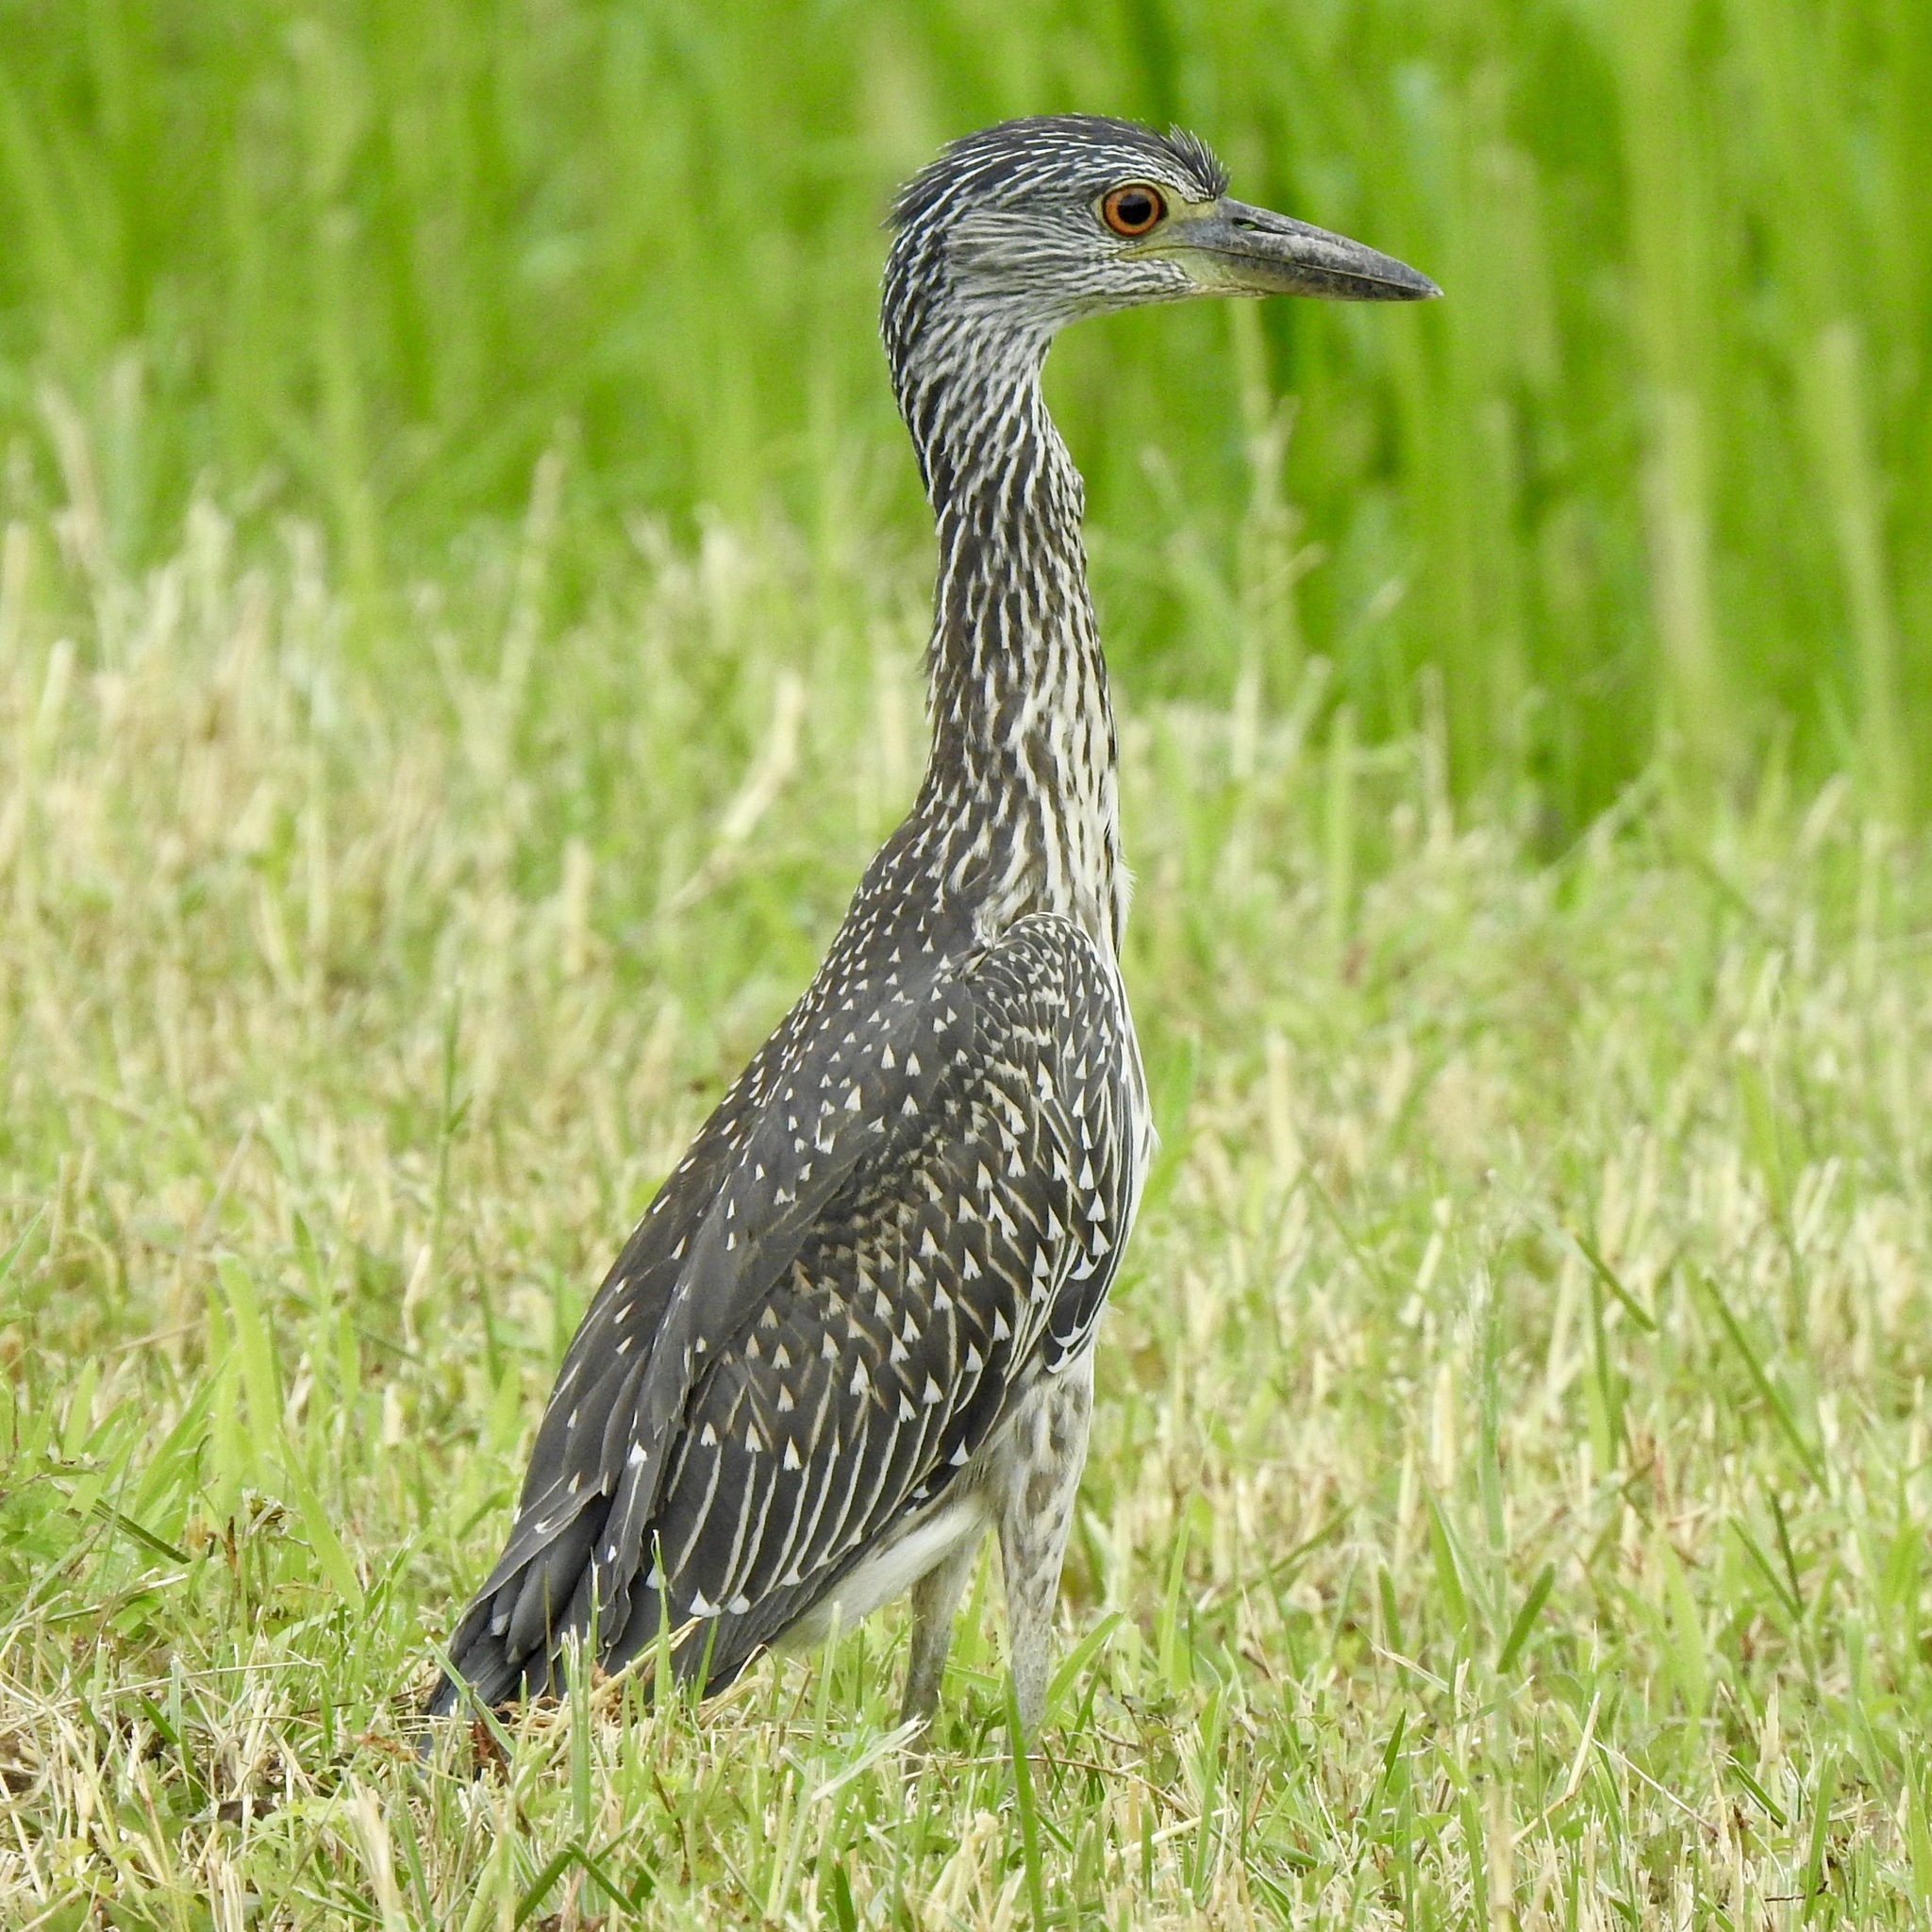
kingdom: Animalia
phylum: Chordata
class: Aves
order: Pelecaniformes
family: Ardeidae
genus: Nyctanassa
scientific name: Nyctanassa violacea
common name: Yellow-crowned night heron
